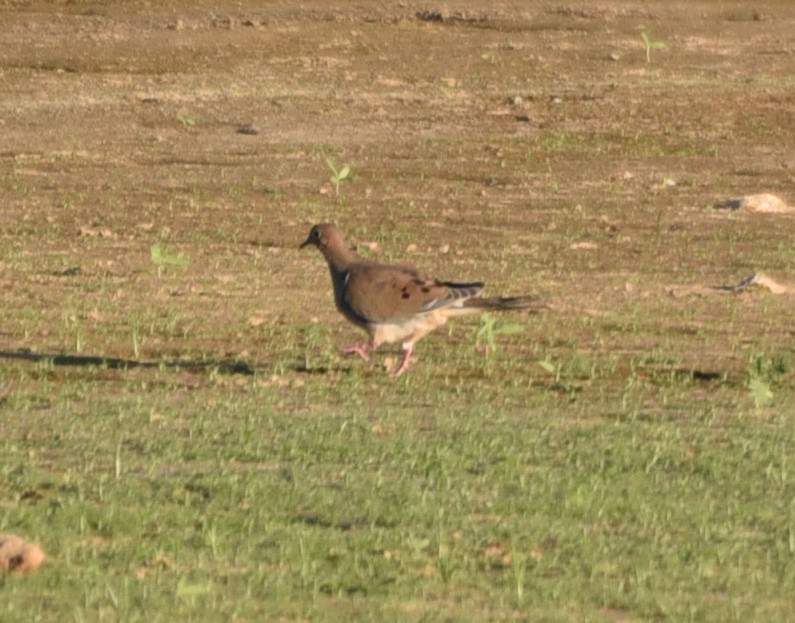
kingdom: Animalia
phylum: Chordata
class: Aves
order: Columbiformes
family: Columbidae
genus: Zenaida
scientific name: Zenaida macroura
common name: Mourning dove
